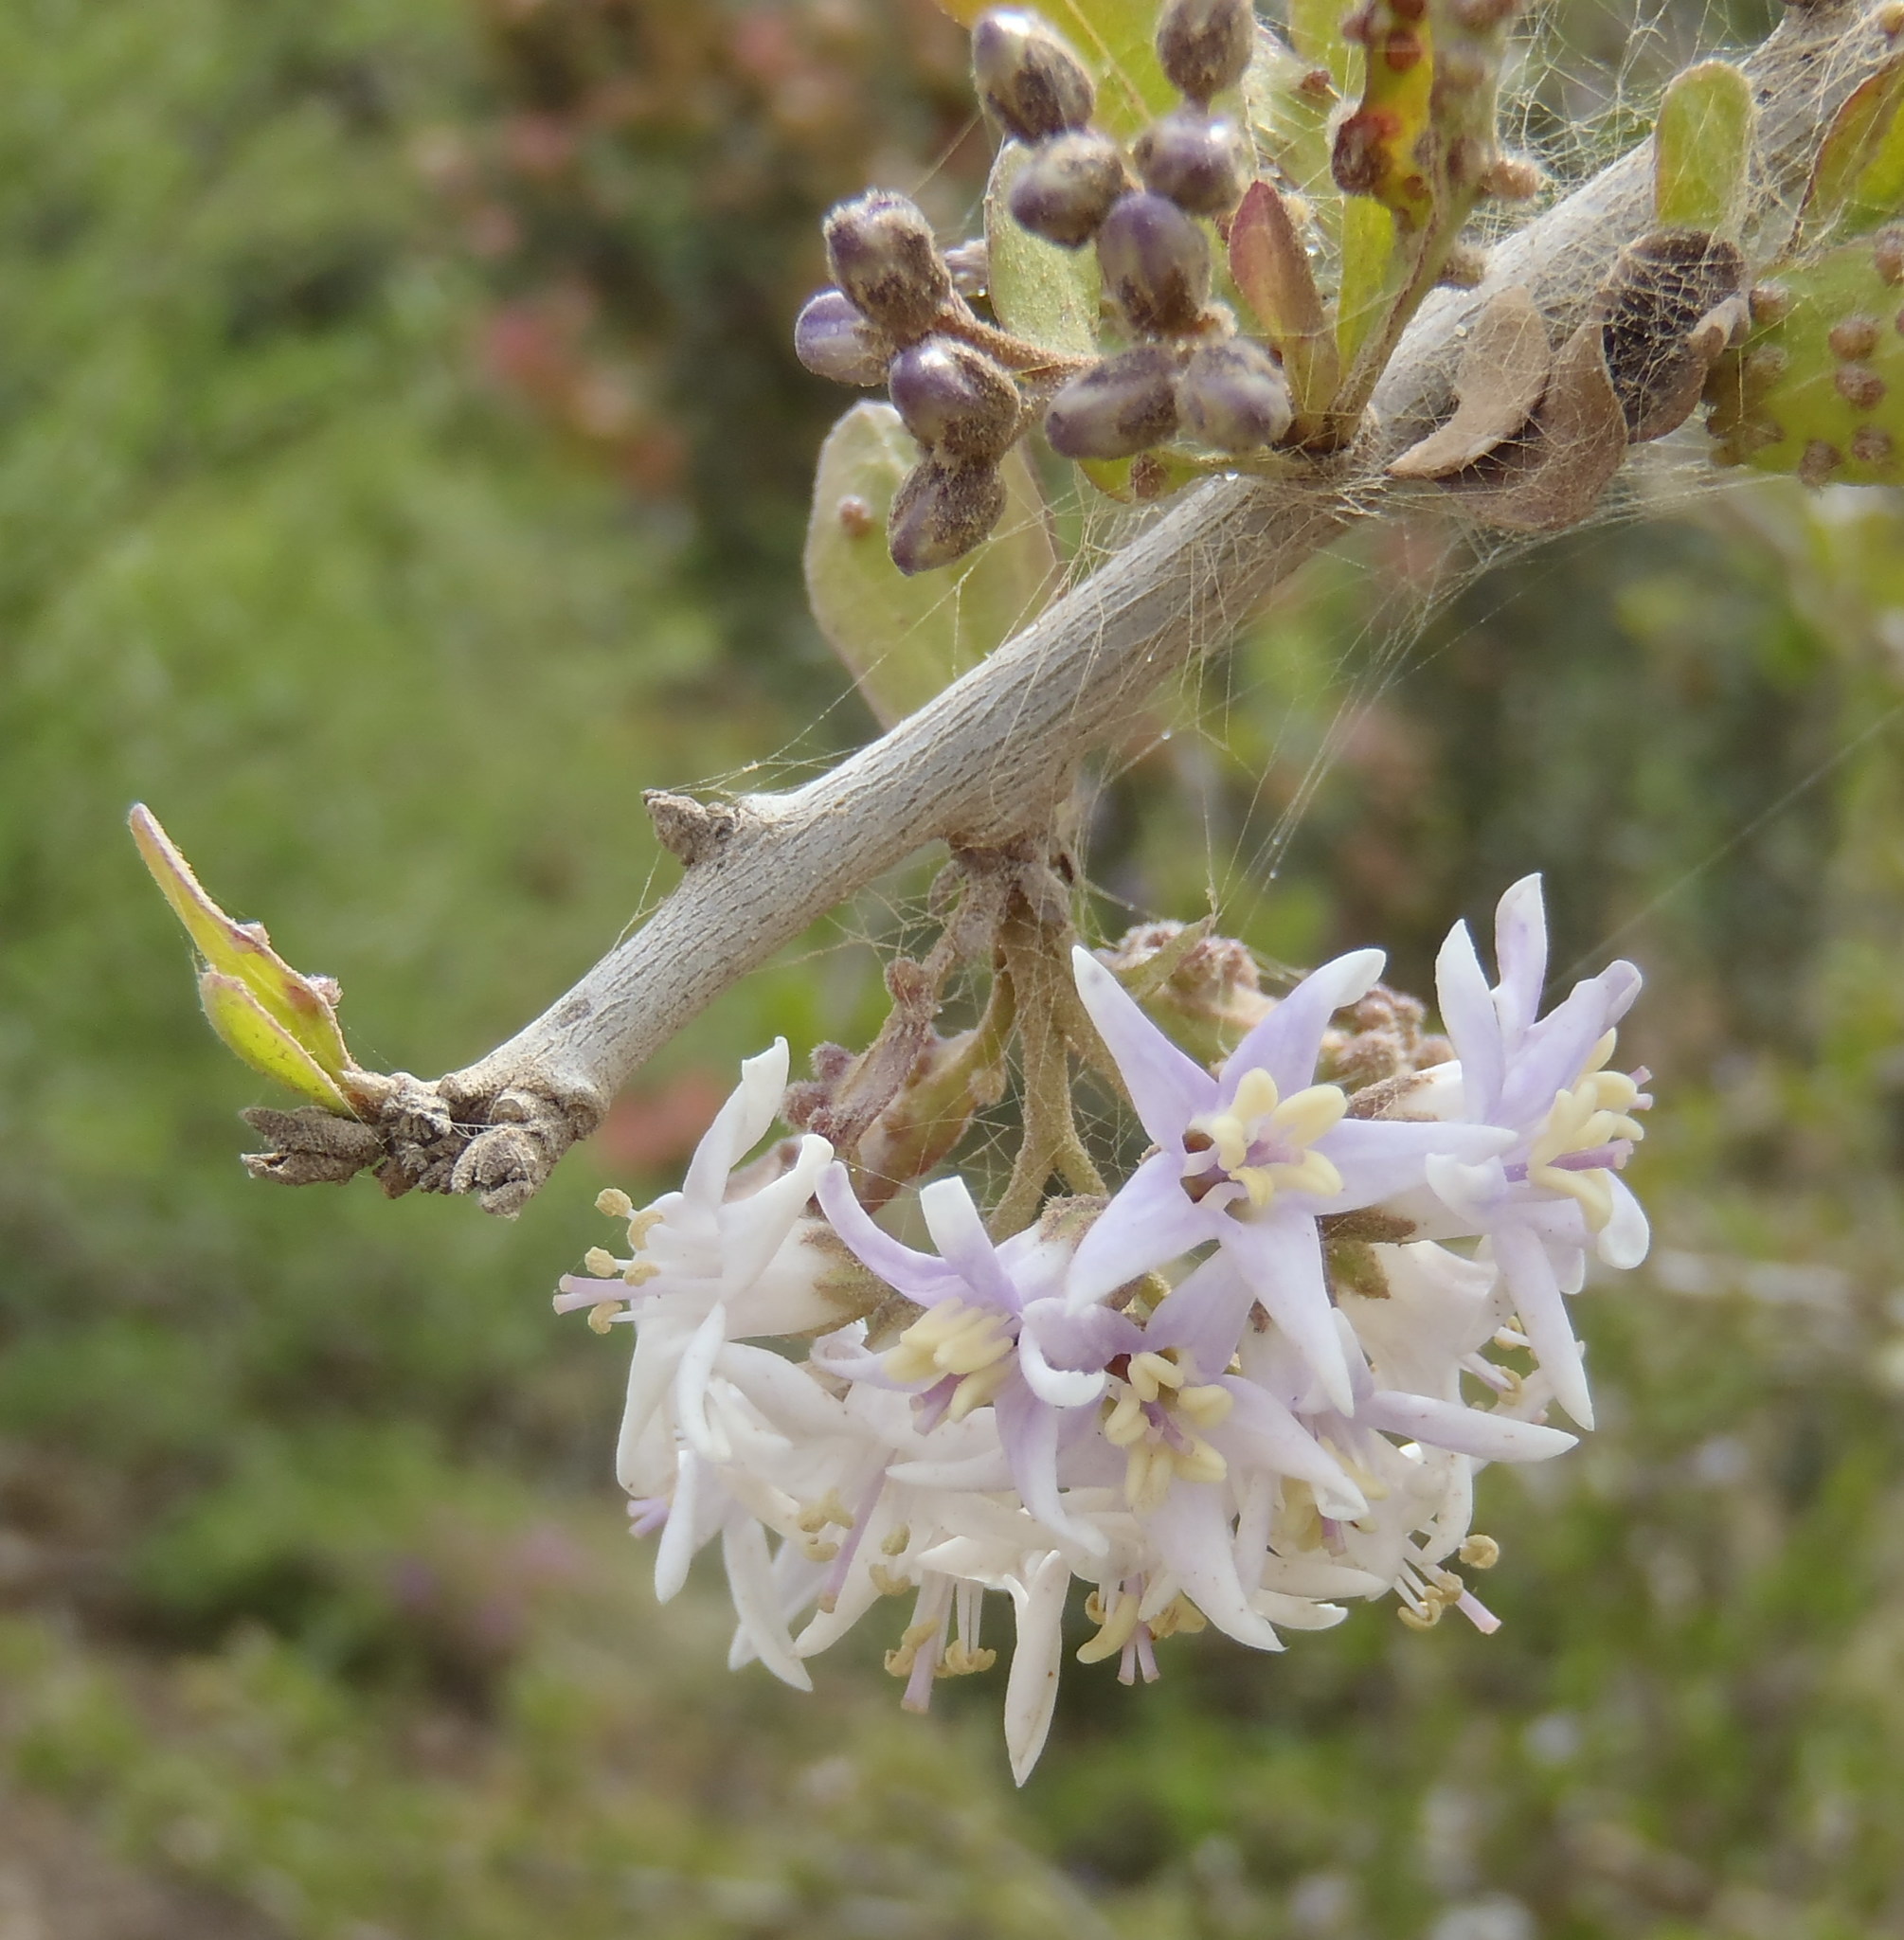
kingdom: Plantae
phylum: Tracheophyta
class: Magnoliopsida
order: Boraginales
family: Ehretiaceae
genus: Ehretia
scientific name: Ehretia rigida
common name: Cape lilac
